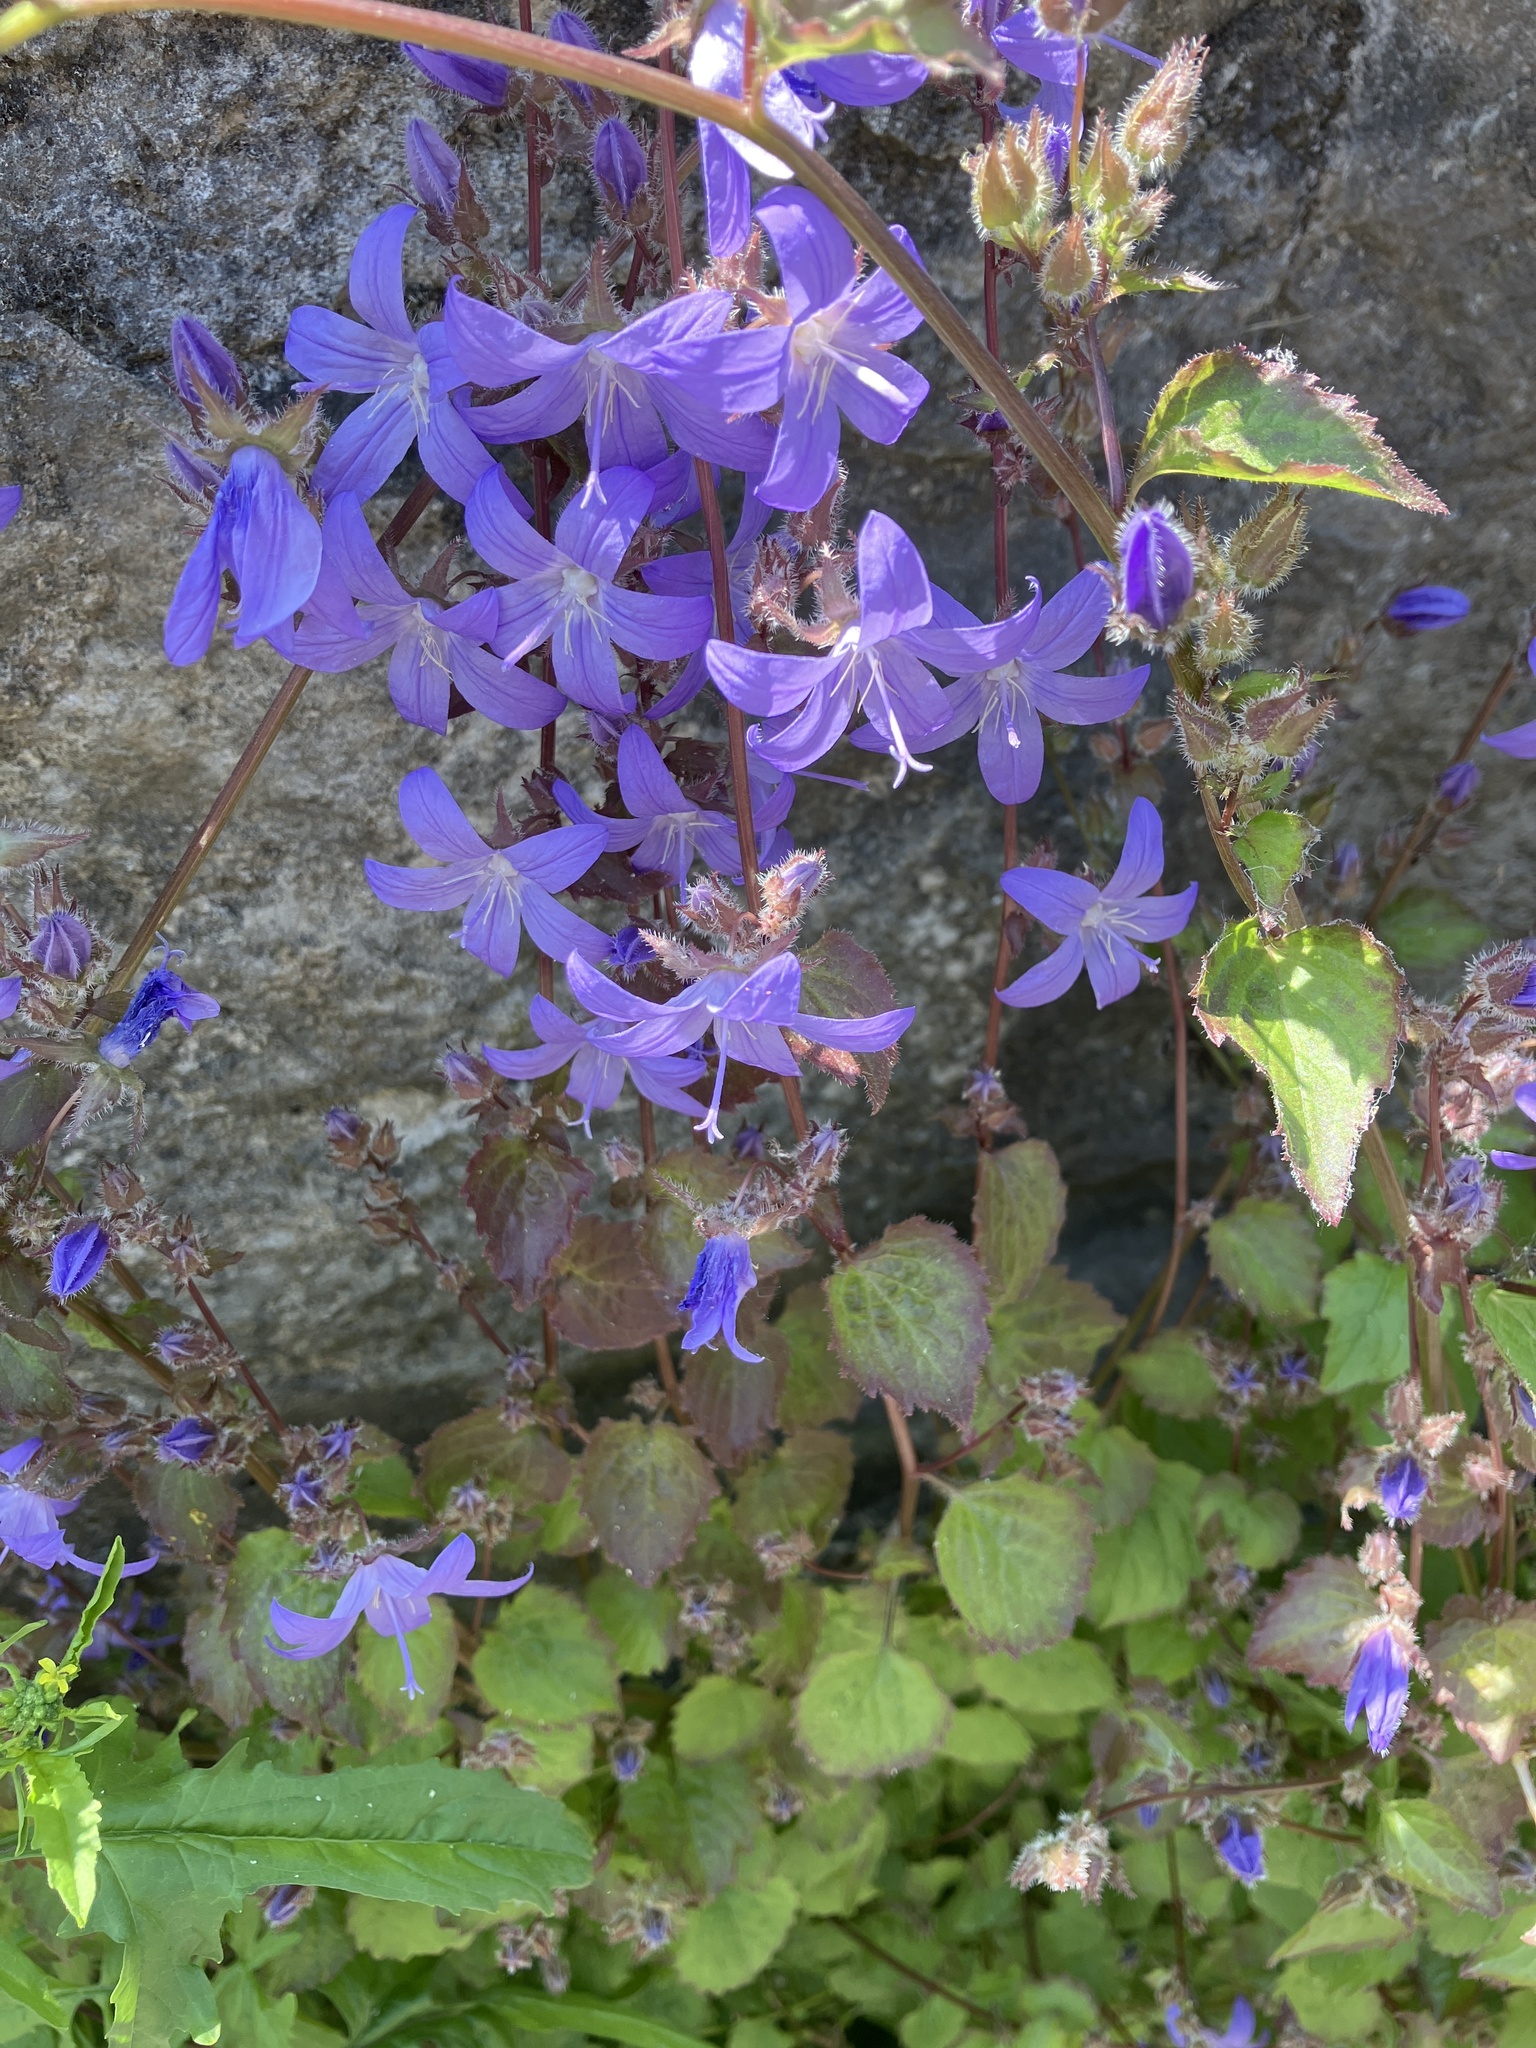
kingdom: Plantae
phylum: Tracheophyta
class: Magnoliopsida
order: Asterales
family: Campanulaceae
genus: Campanula
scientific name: Campanula poscharskyana
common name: Trailing bellflower
